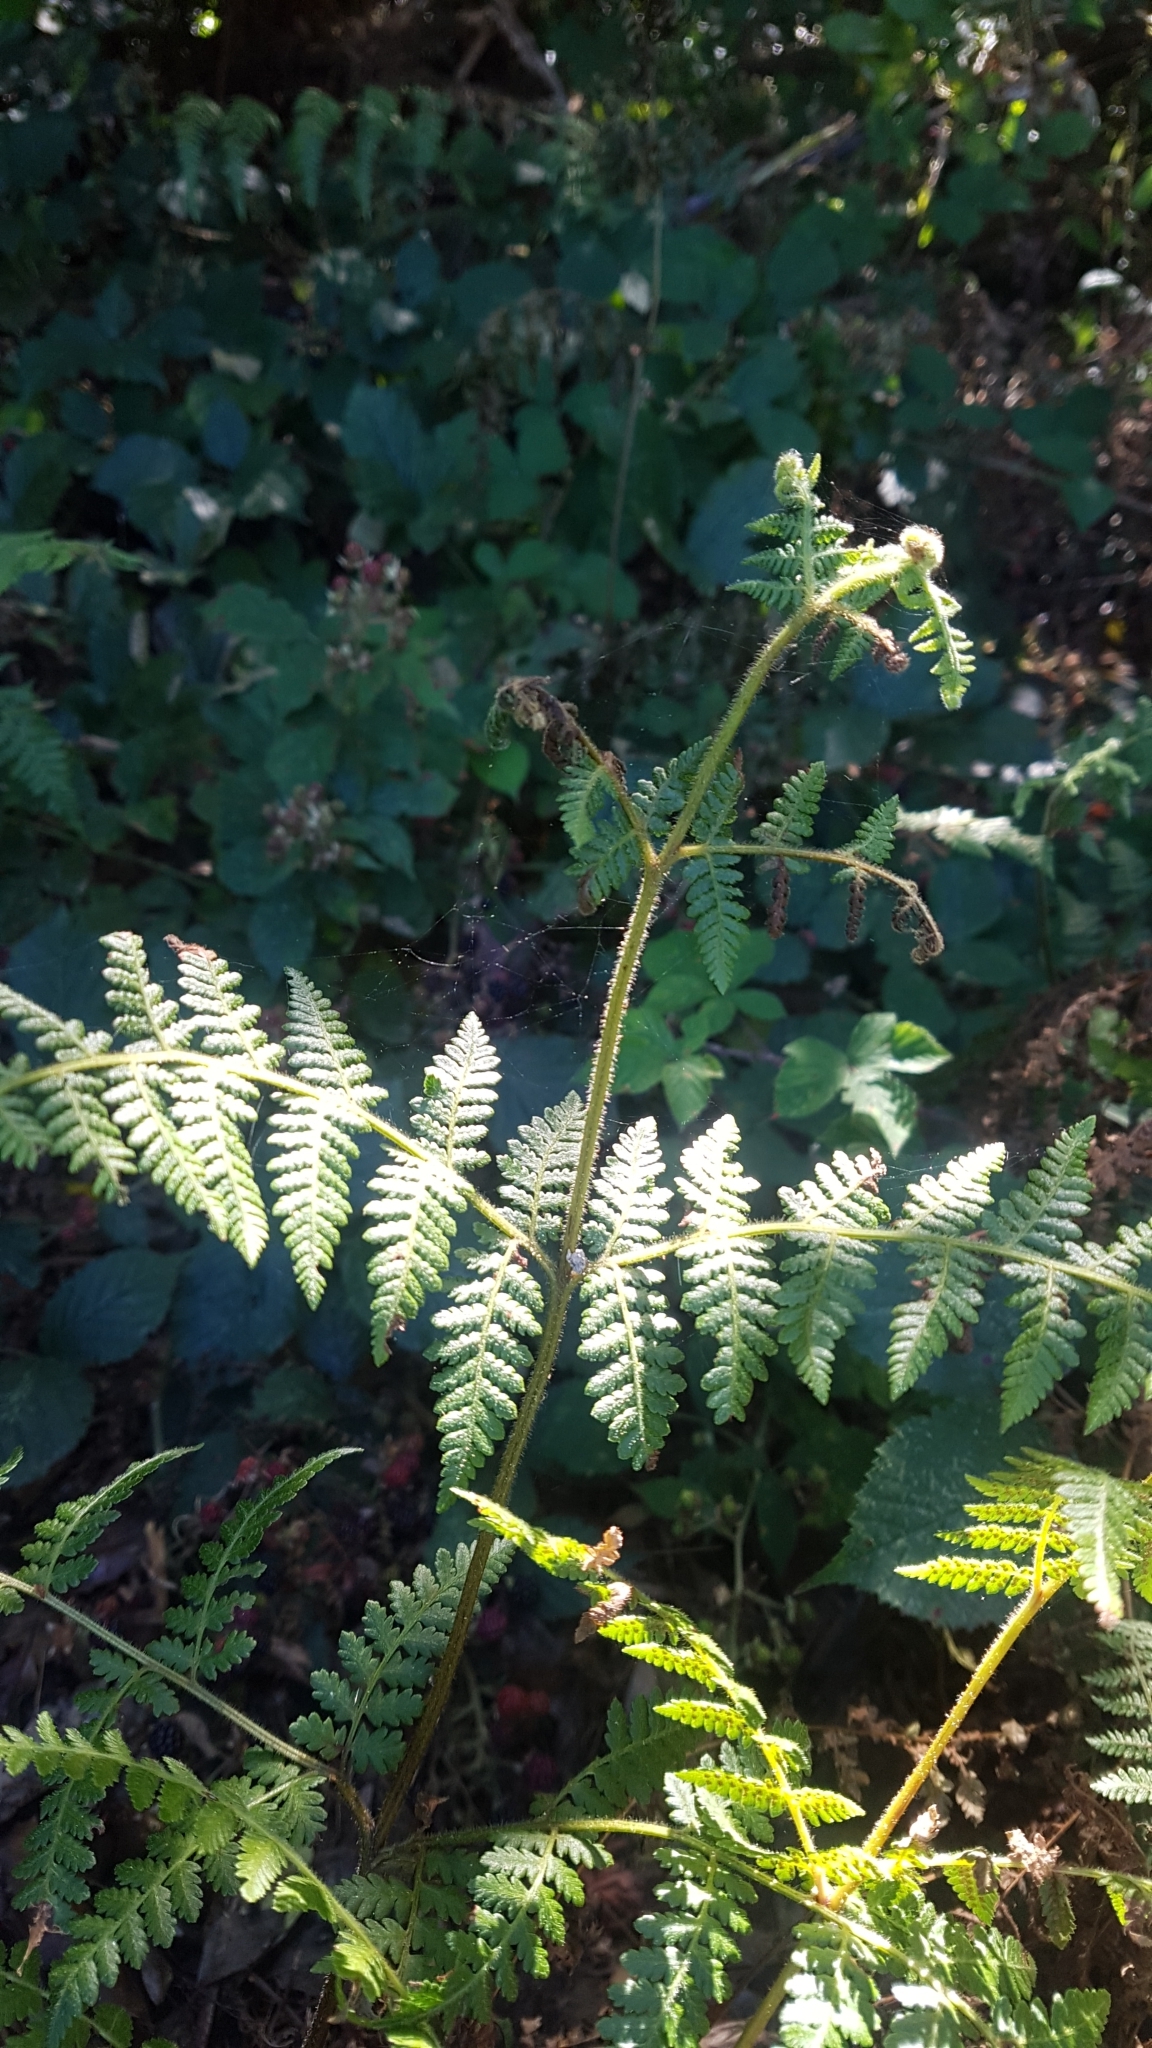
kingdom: Plantae
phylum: Tracheophyta
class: Polypodiopsida
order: Polypodiales
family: Dennstaedtiaceae
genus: Hypolepis
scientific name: Hypolepis ambigua
